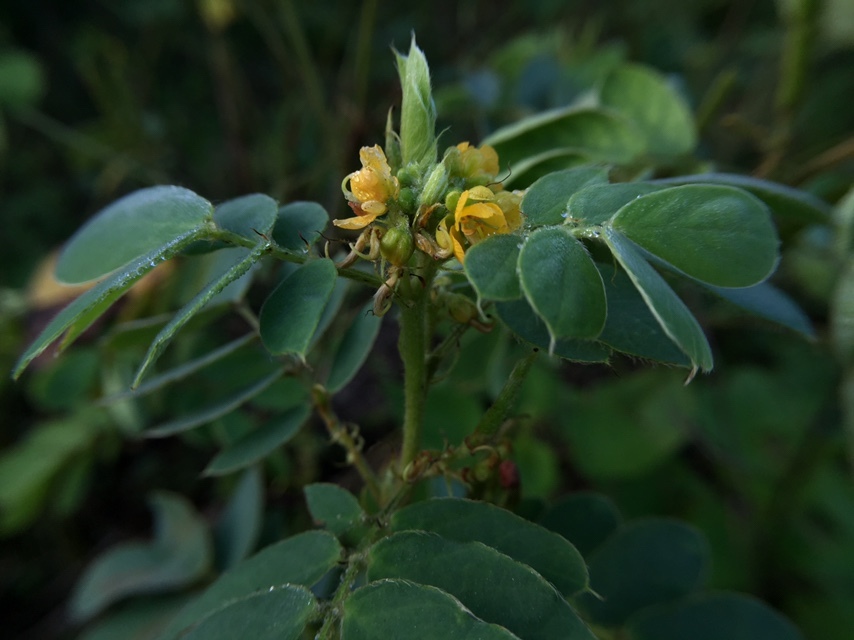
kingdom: Plantae
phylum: Tracheophyta
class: Magnoliopsida
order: Fabales
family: Fabaceae
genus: Senna
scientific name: Senna uniflora
